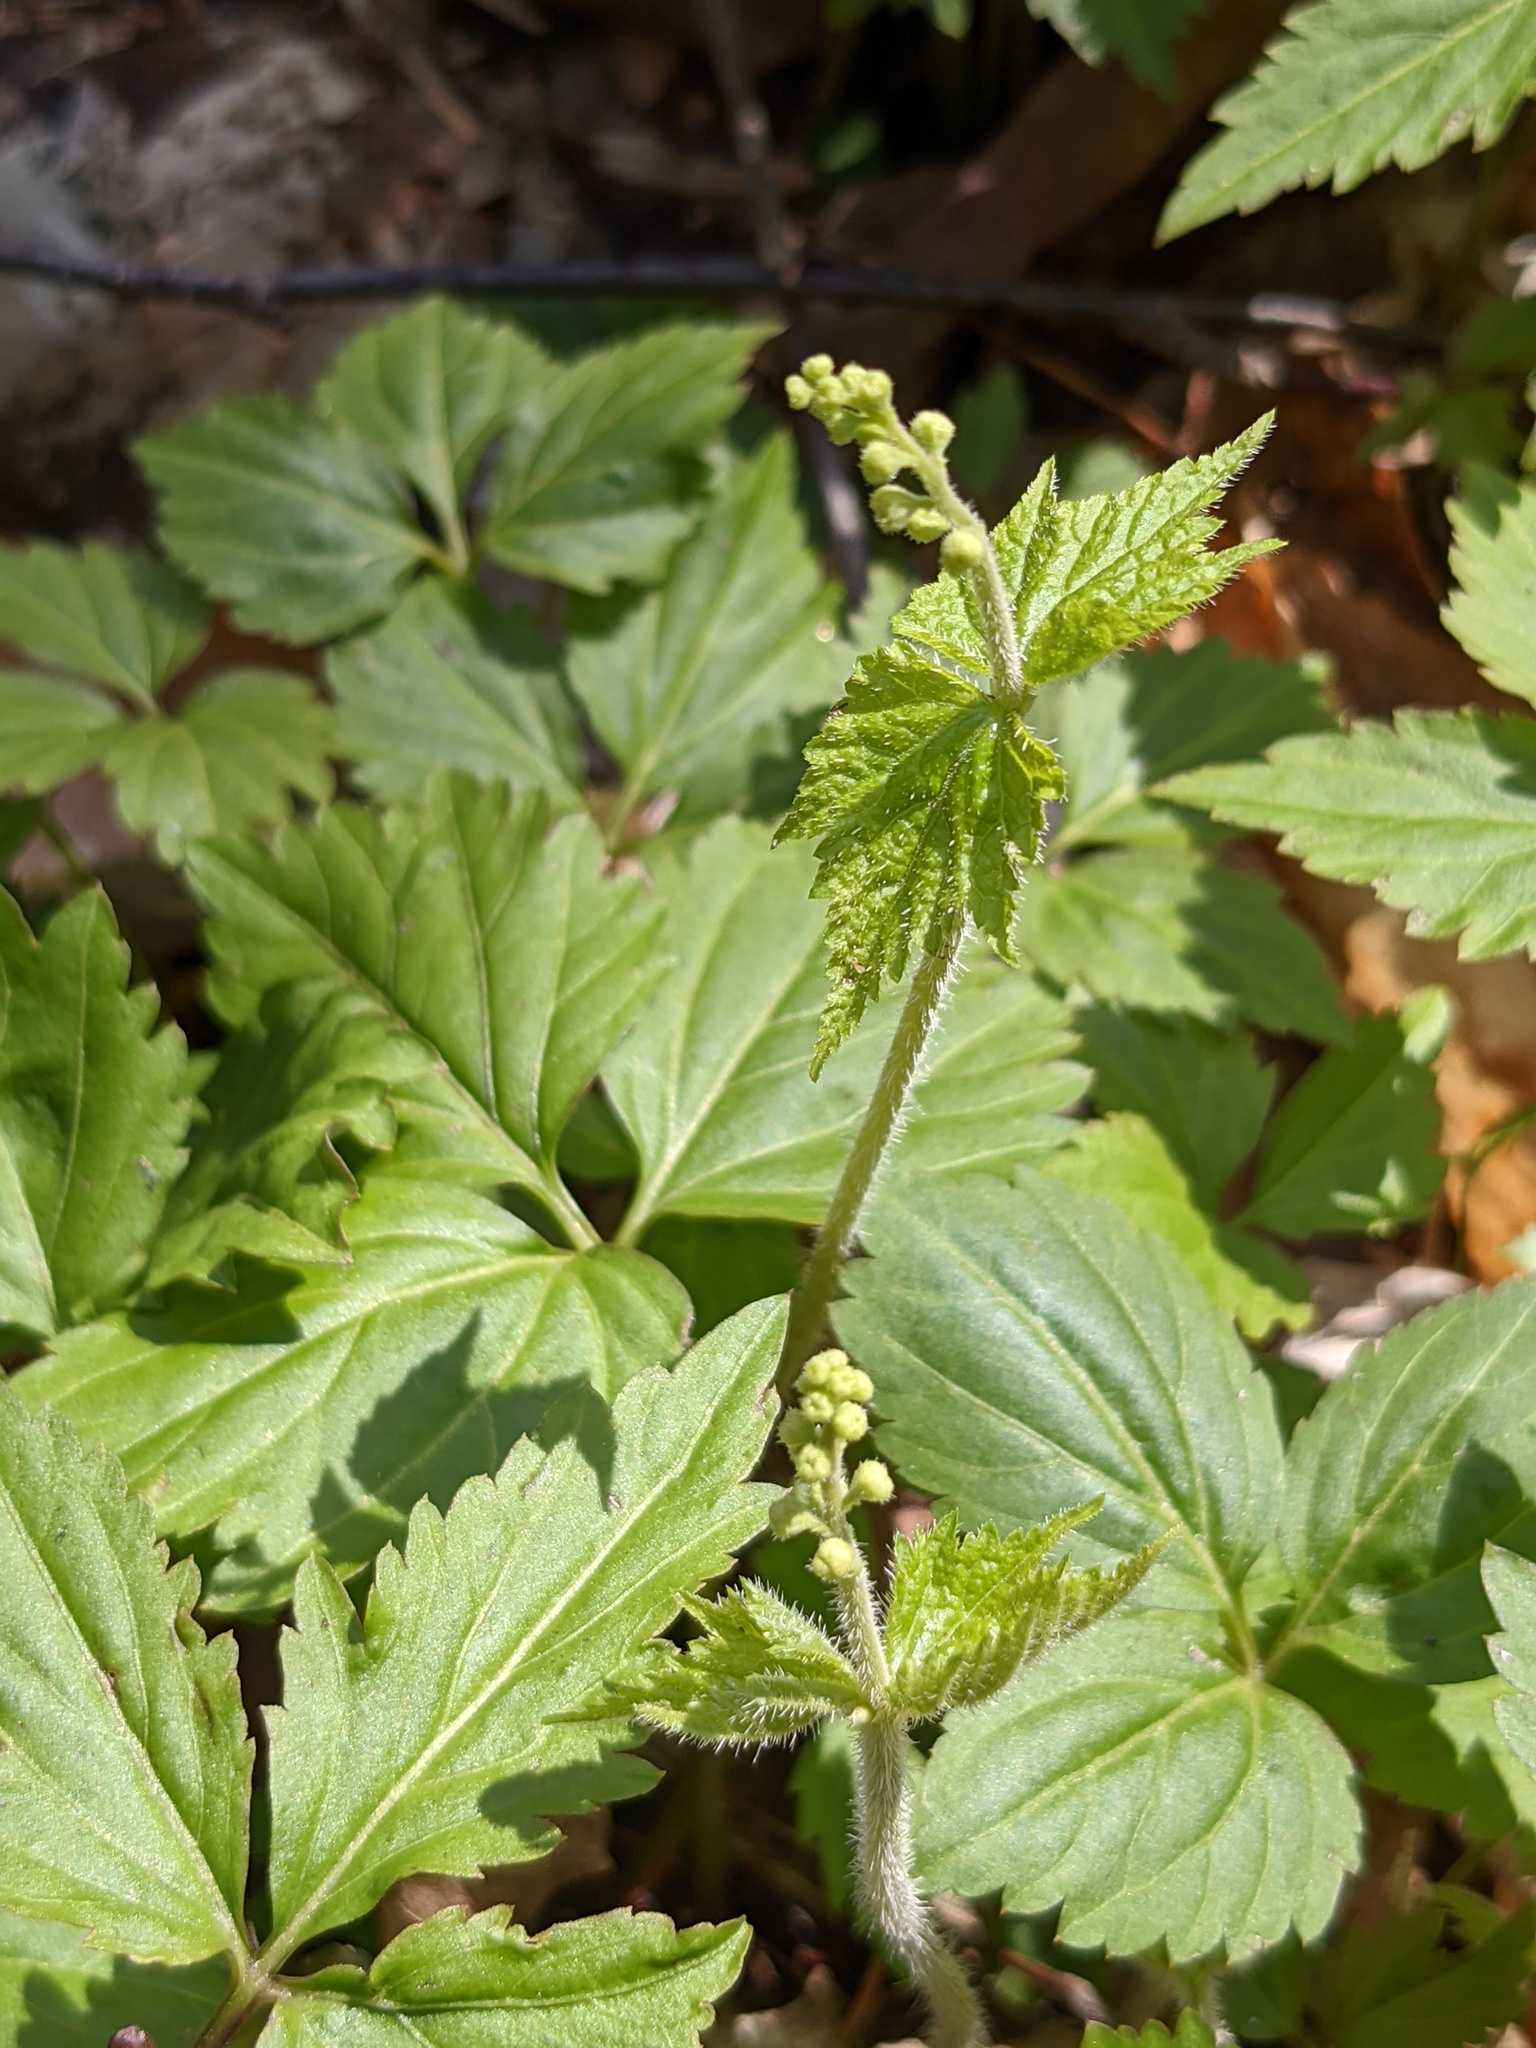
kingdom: Plantae
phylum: Tracheophyta
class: Magnoliopsida
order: Saxifragales
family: Saxifragaceae
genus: Mitella
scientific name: Mitella diphylla
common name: Coolwort
